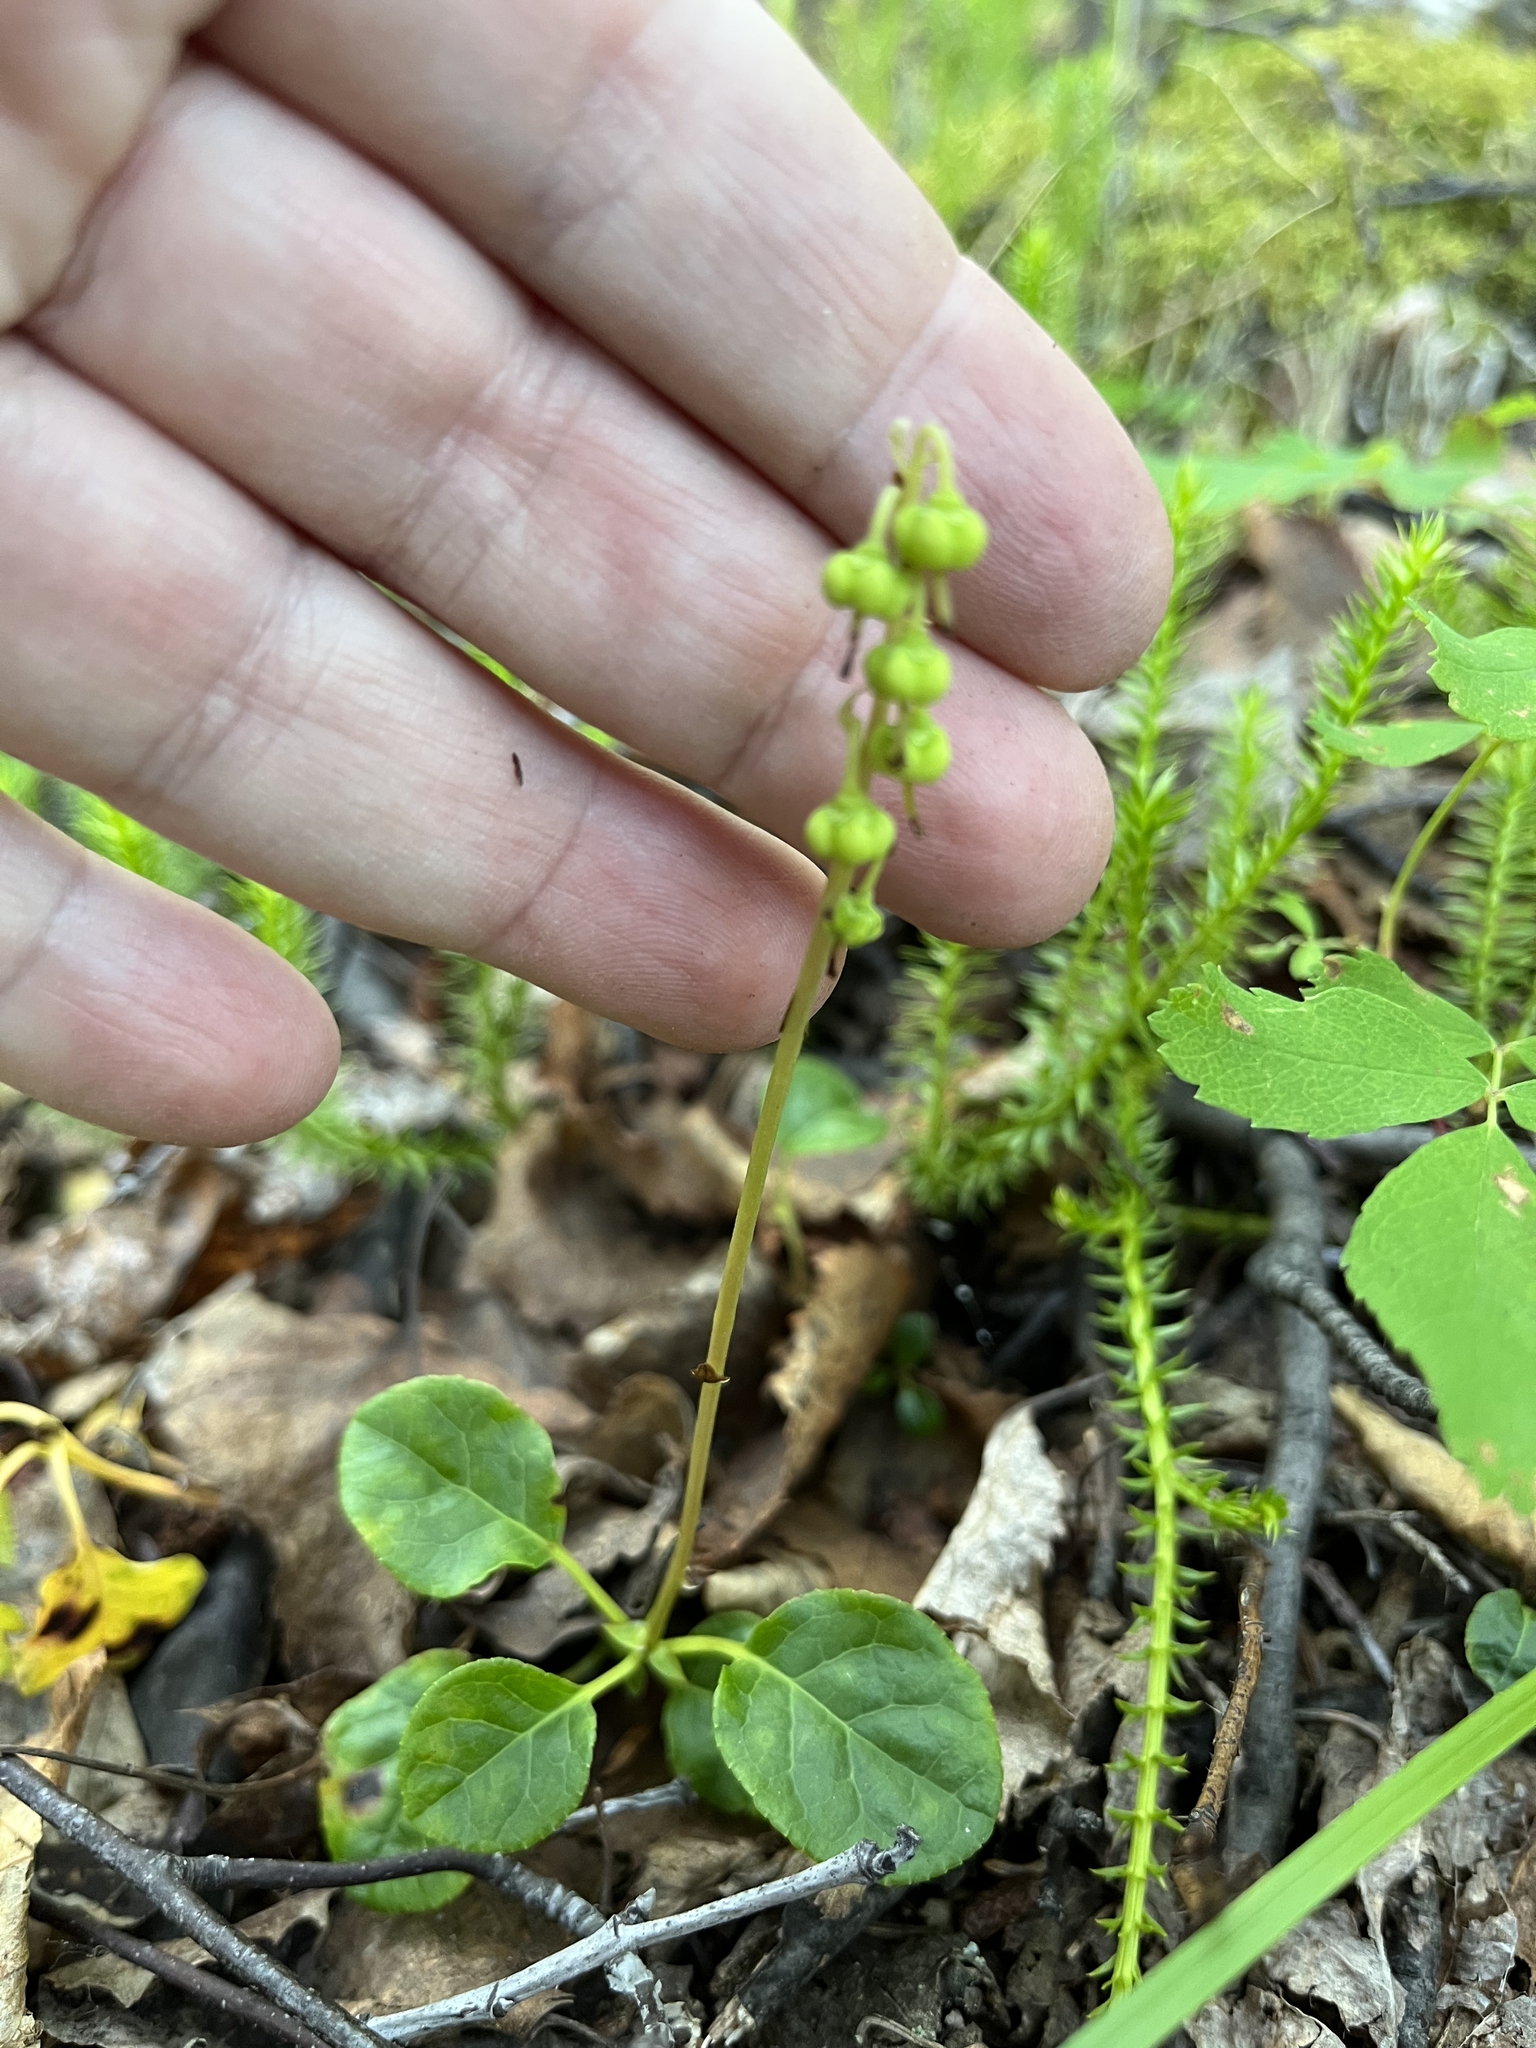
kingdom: Plantae
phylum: Tracheophyta
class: Magnoliopsida
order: Ericales
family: Ericaceae
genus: Orthilia
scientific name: Orthilia secunda
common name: One-sided orthilia
